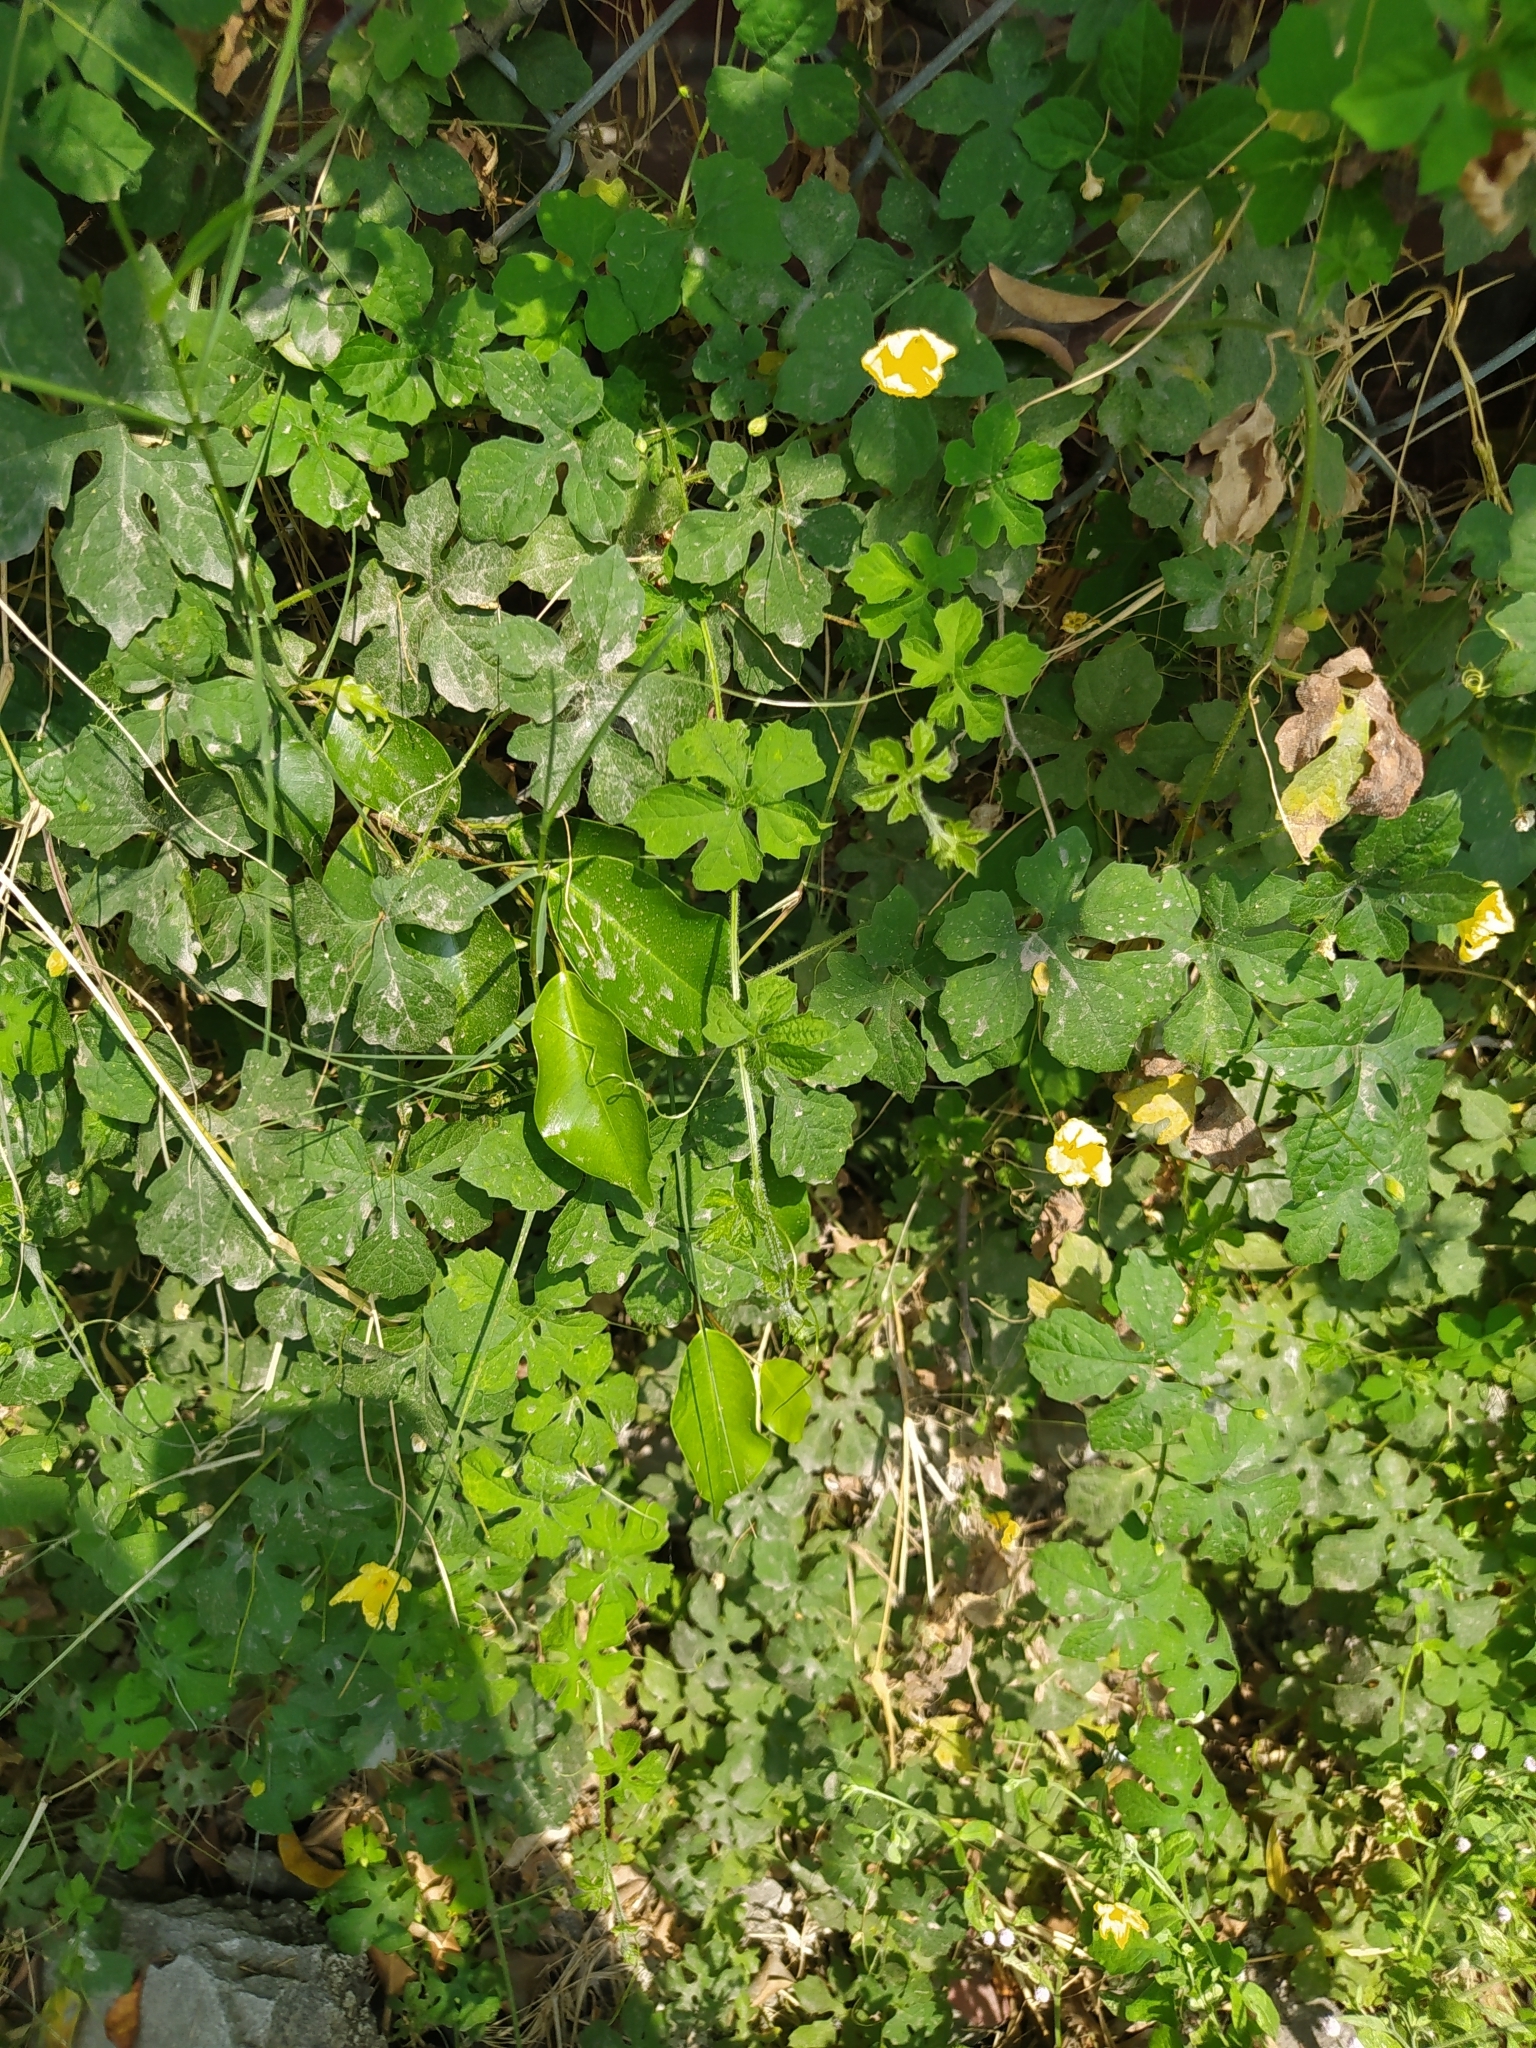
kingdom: Plantae
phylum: Tracheophyta
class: Magnoliopsida
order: Cucurbitales
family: Cucurbitaceae
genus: Momordica
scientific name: Momordica charantia
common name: Balsampear
